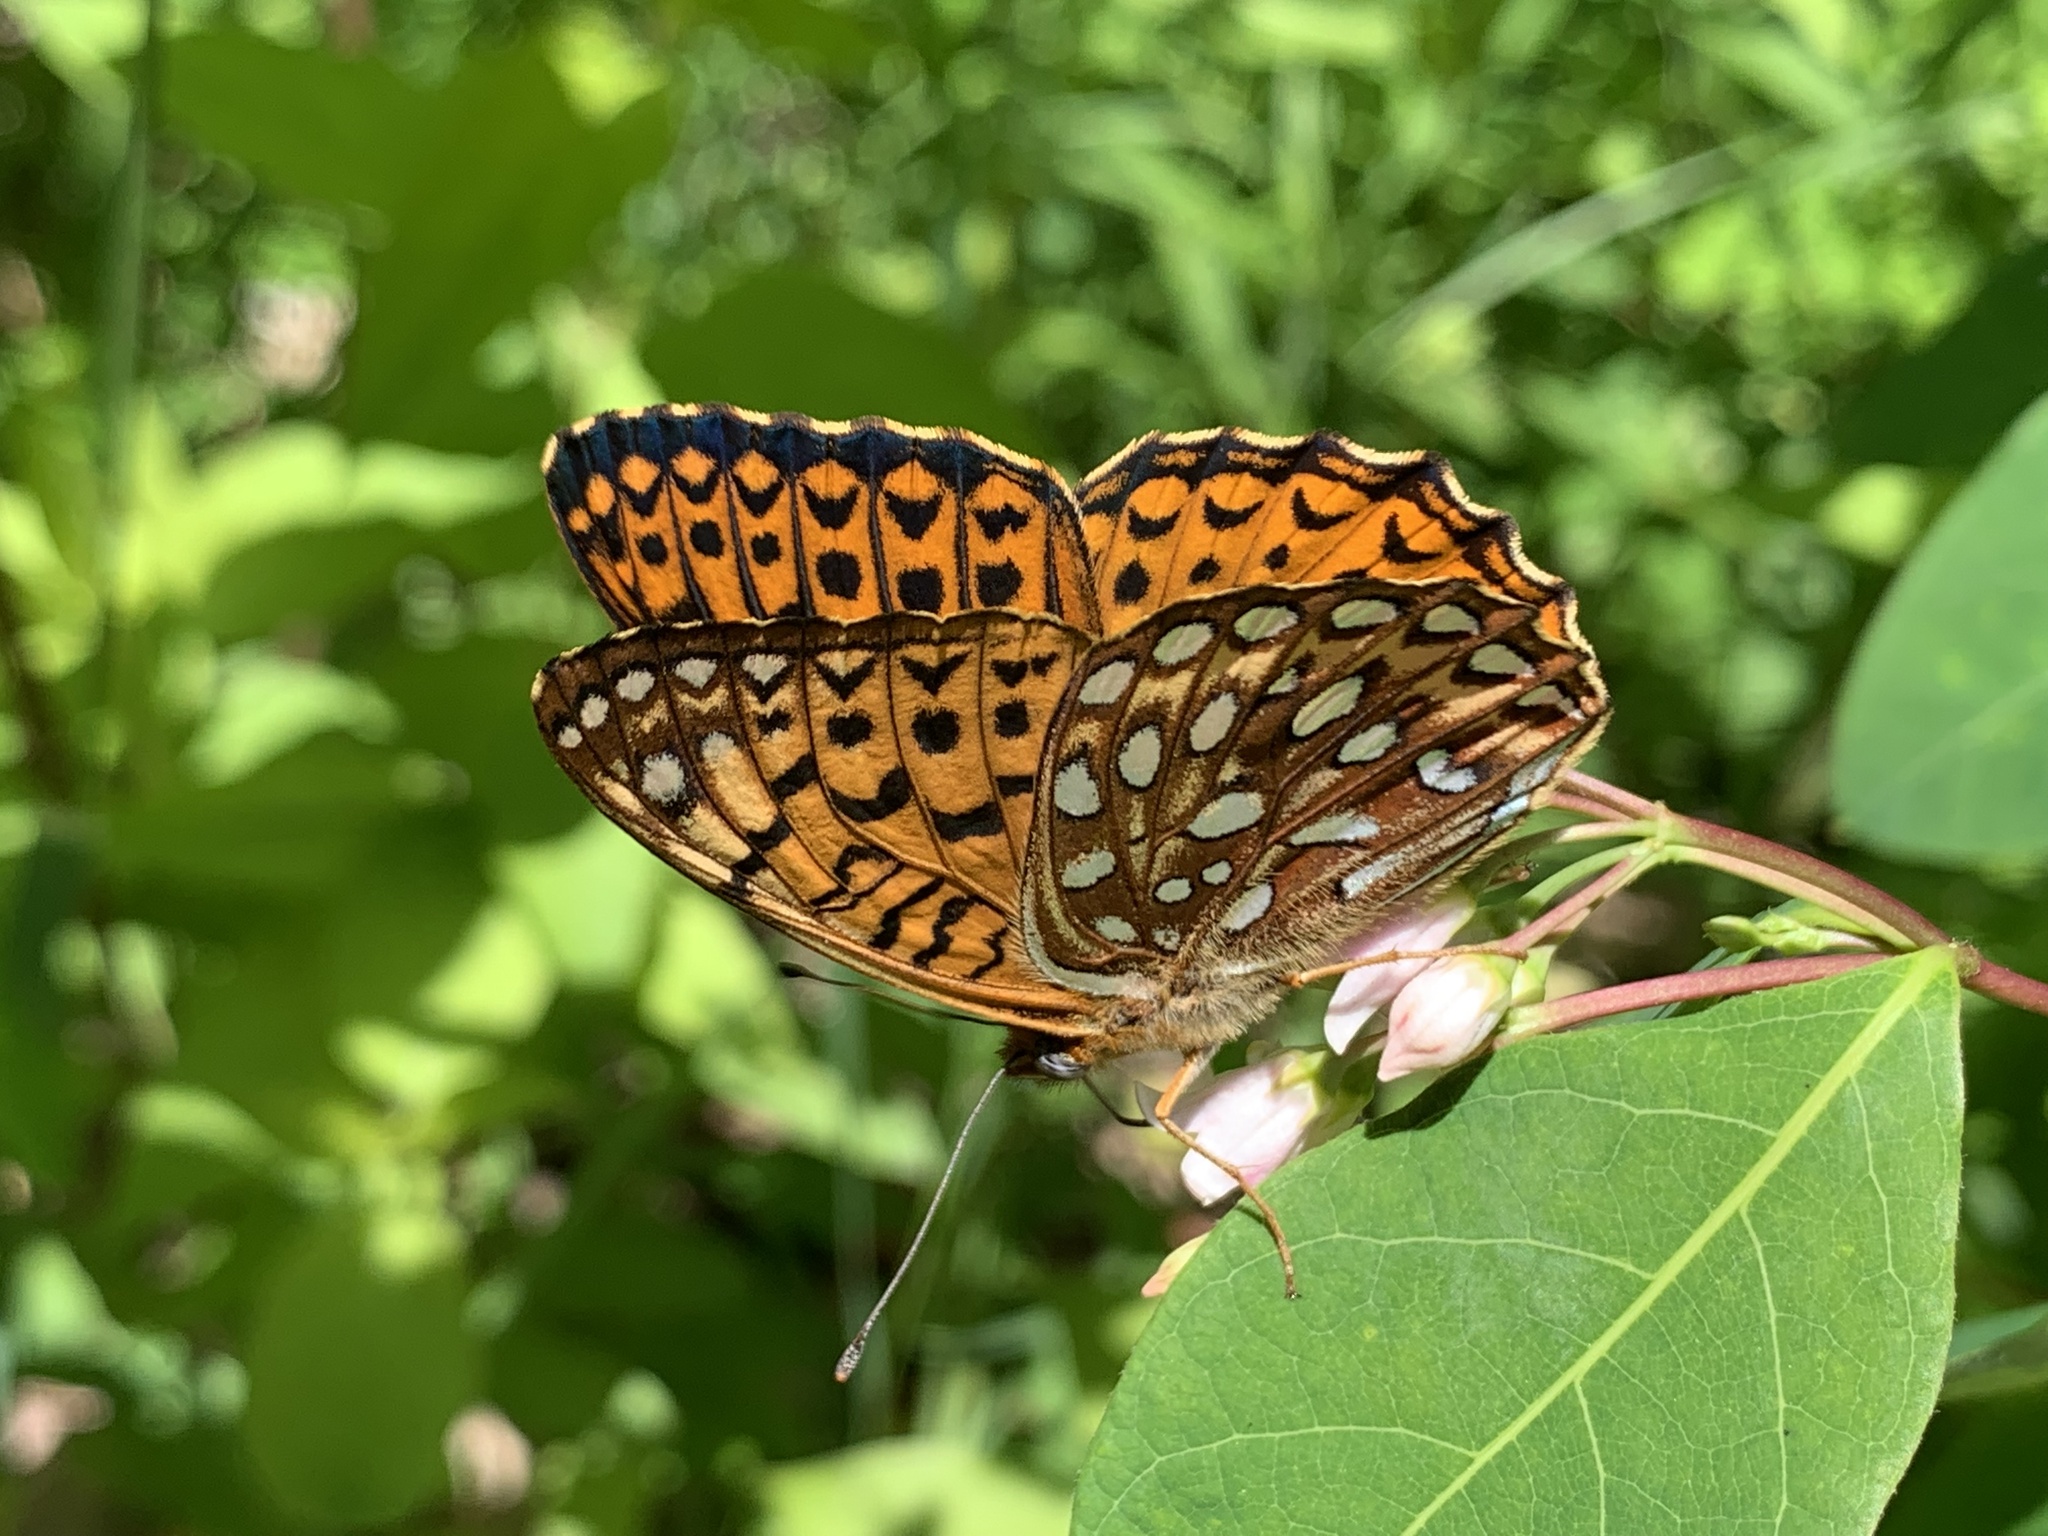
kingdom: Animalia
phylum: Arthropoda
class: Insecta
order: Lepidoptera
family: Nymphalidae
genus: Speyeria
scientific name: Speyeria atlantis
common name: Atlantis fritillary
